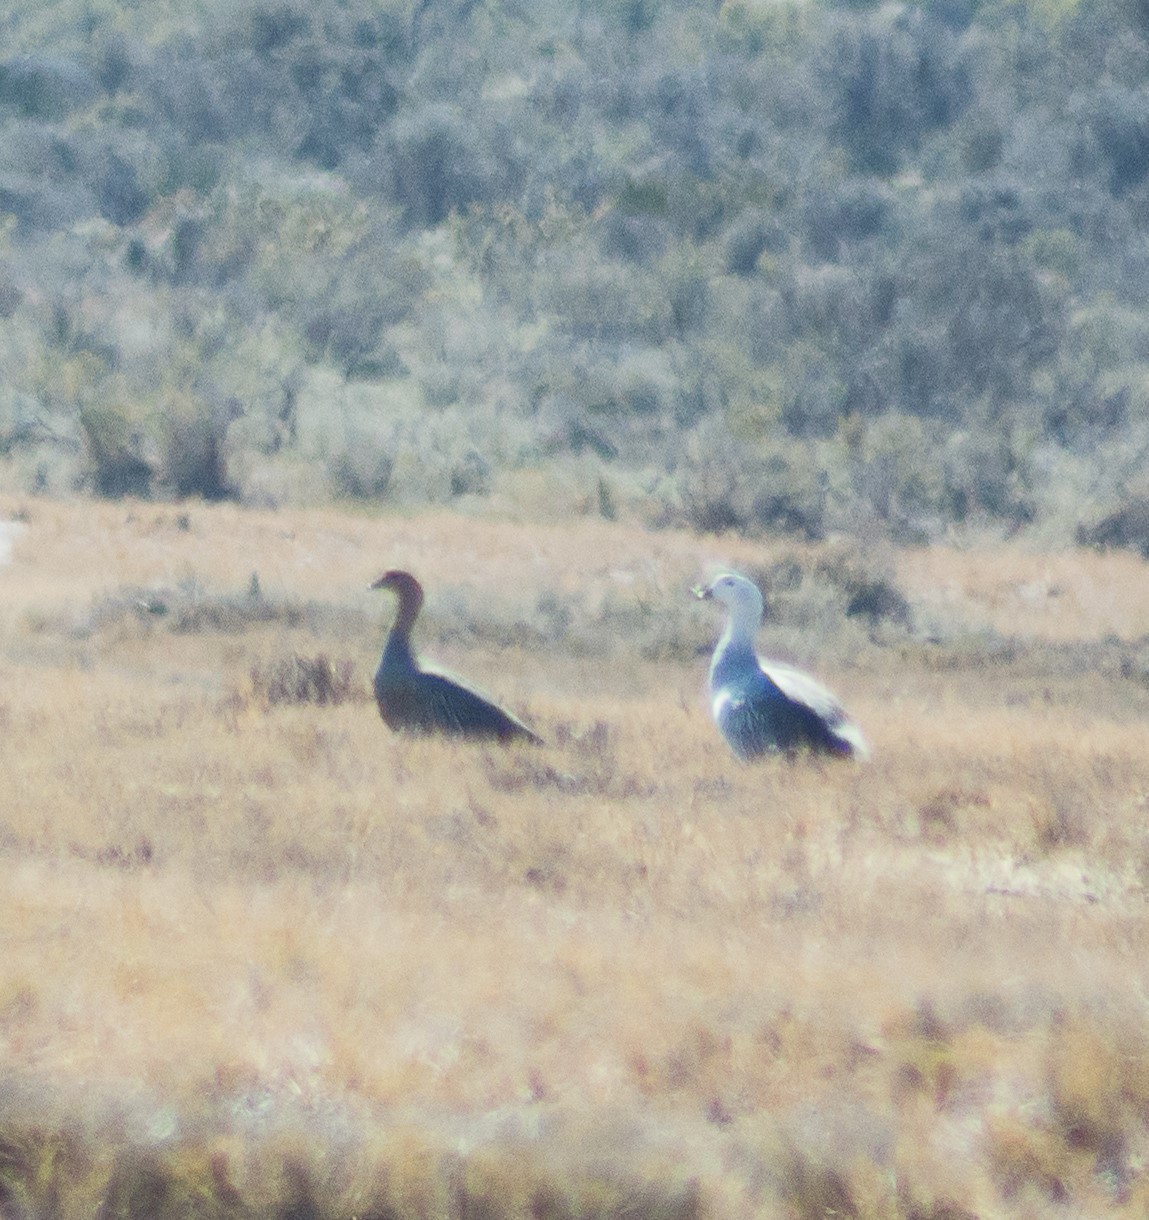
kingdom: Animalia
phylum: Chordata
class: Aves
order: Anseriformes
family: Anatidae
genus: Chloephaga
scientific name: Chloephaga picta
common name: Upland goose
